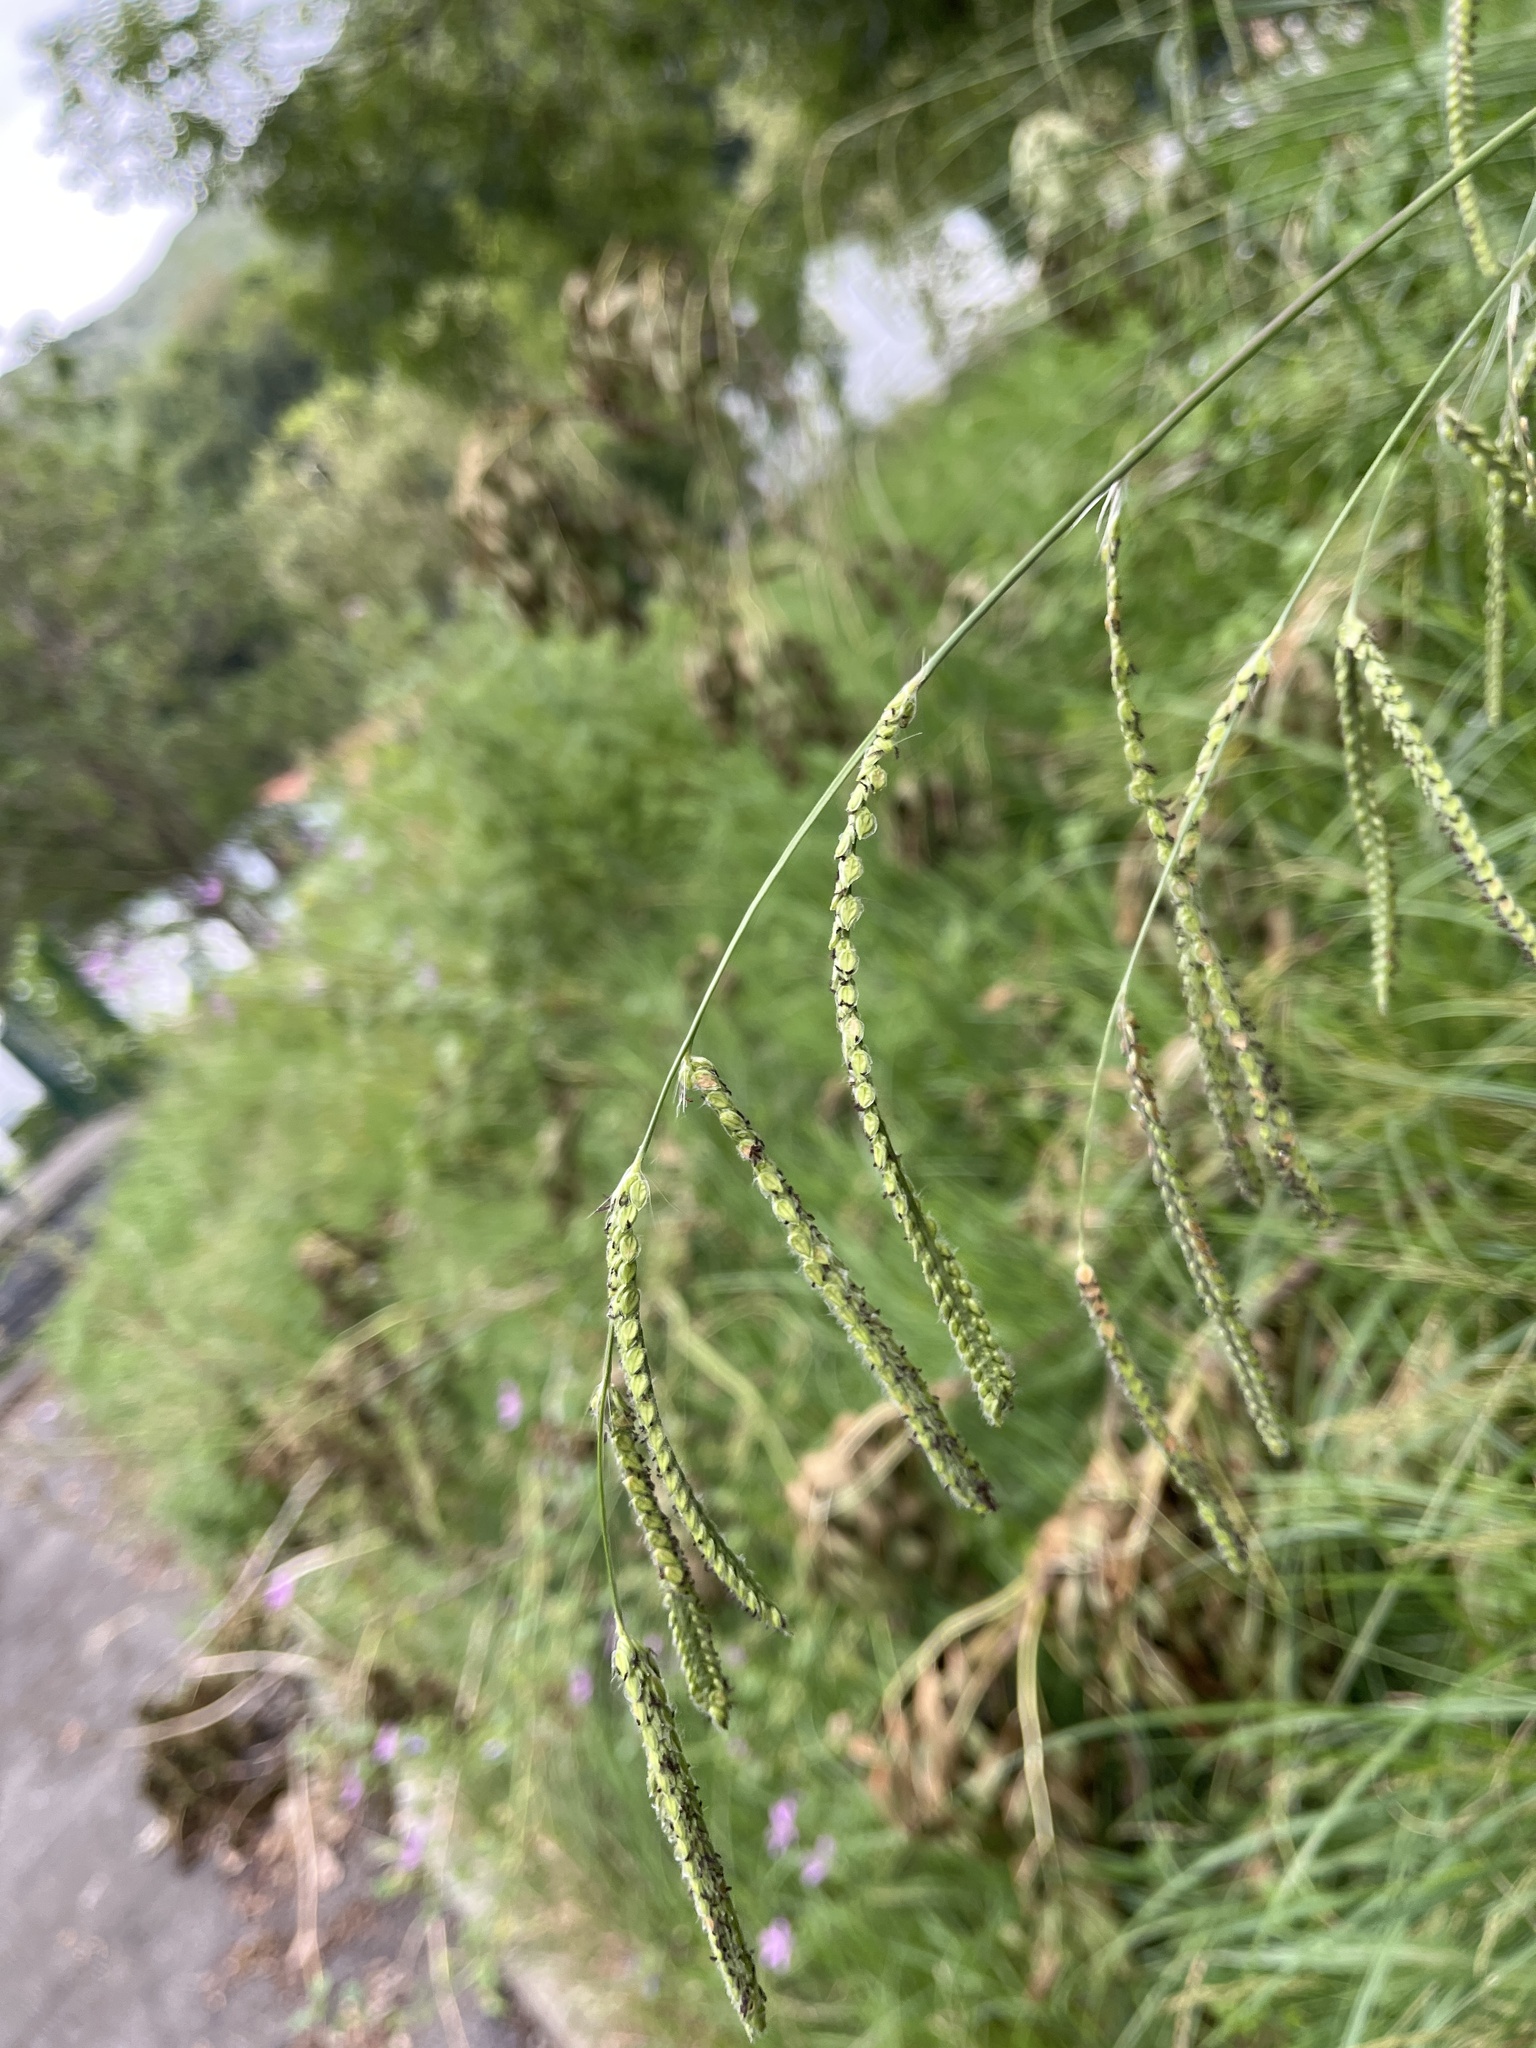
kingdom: Plantae
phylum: Tracheophyta
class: Liliopsida
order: Poales
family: Poaceae
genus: Paspalum
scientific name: Paspalum dilatatum
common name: Dallisgrass
